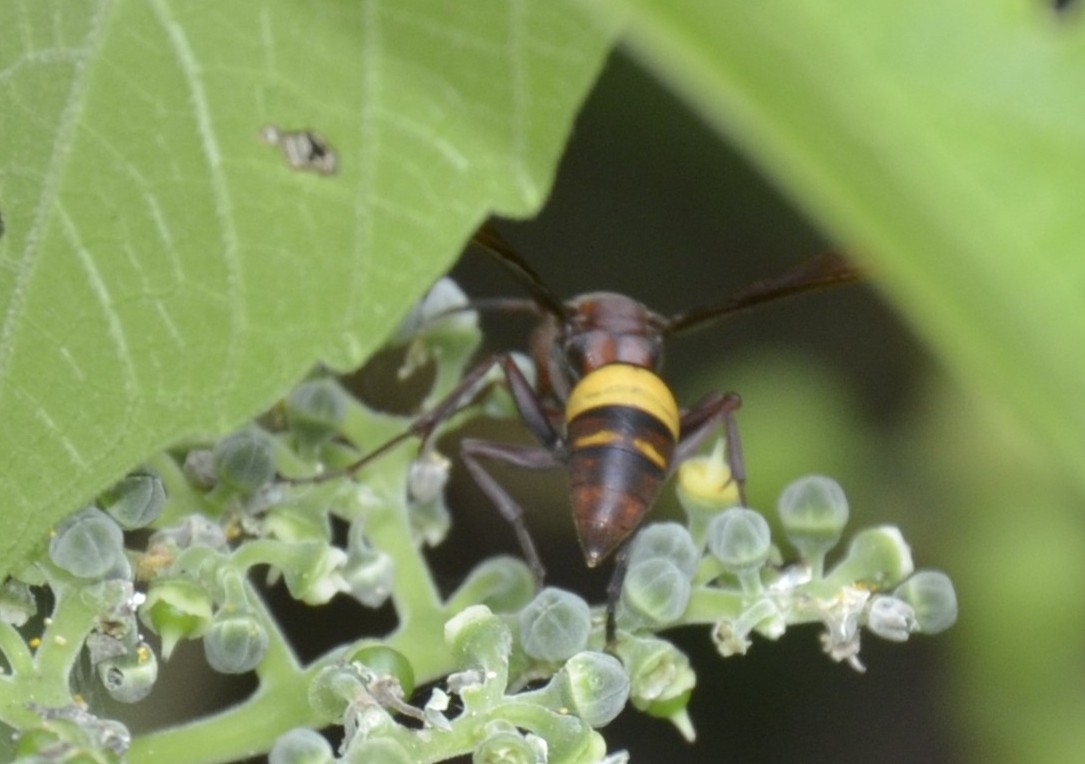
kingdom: Animalia
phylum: Arthropoda
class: Insecta
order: Hymenoptera
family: Eumenidae
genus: Polistes
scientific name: Polistes sagittarius
